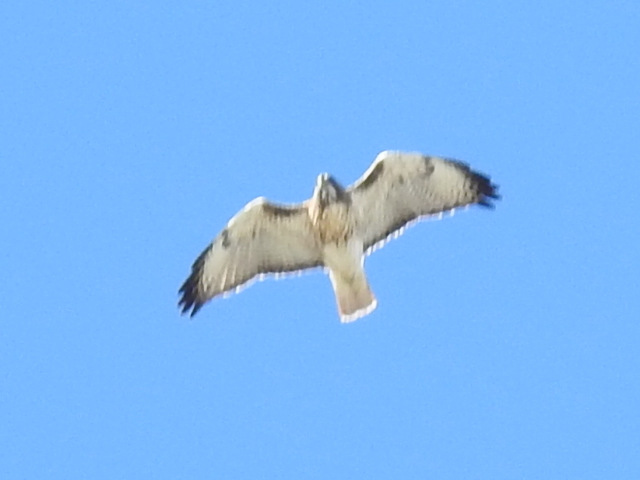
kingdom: Animalia
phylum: Chordata
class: Aves
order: Accipitriformes
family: Accipitridae
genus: Buteo
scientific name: Buteo jamaicensis
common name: Red-tailed hawk
